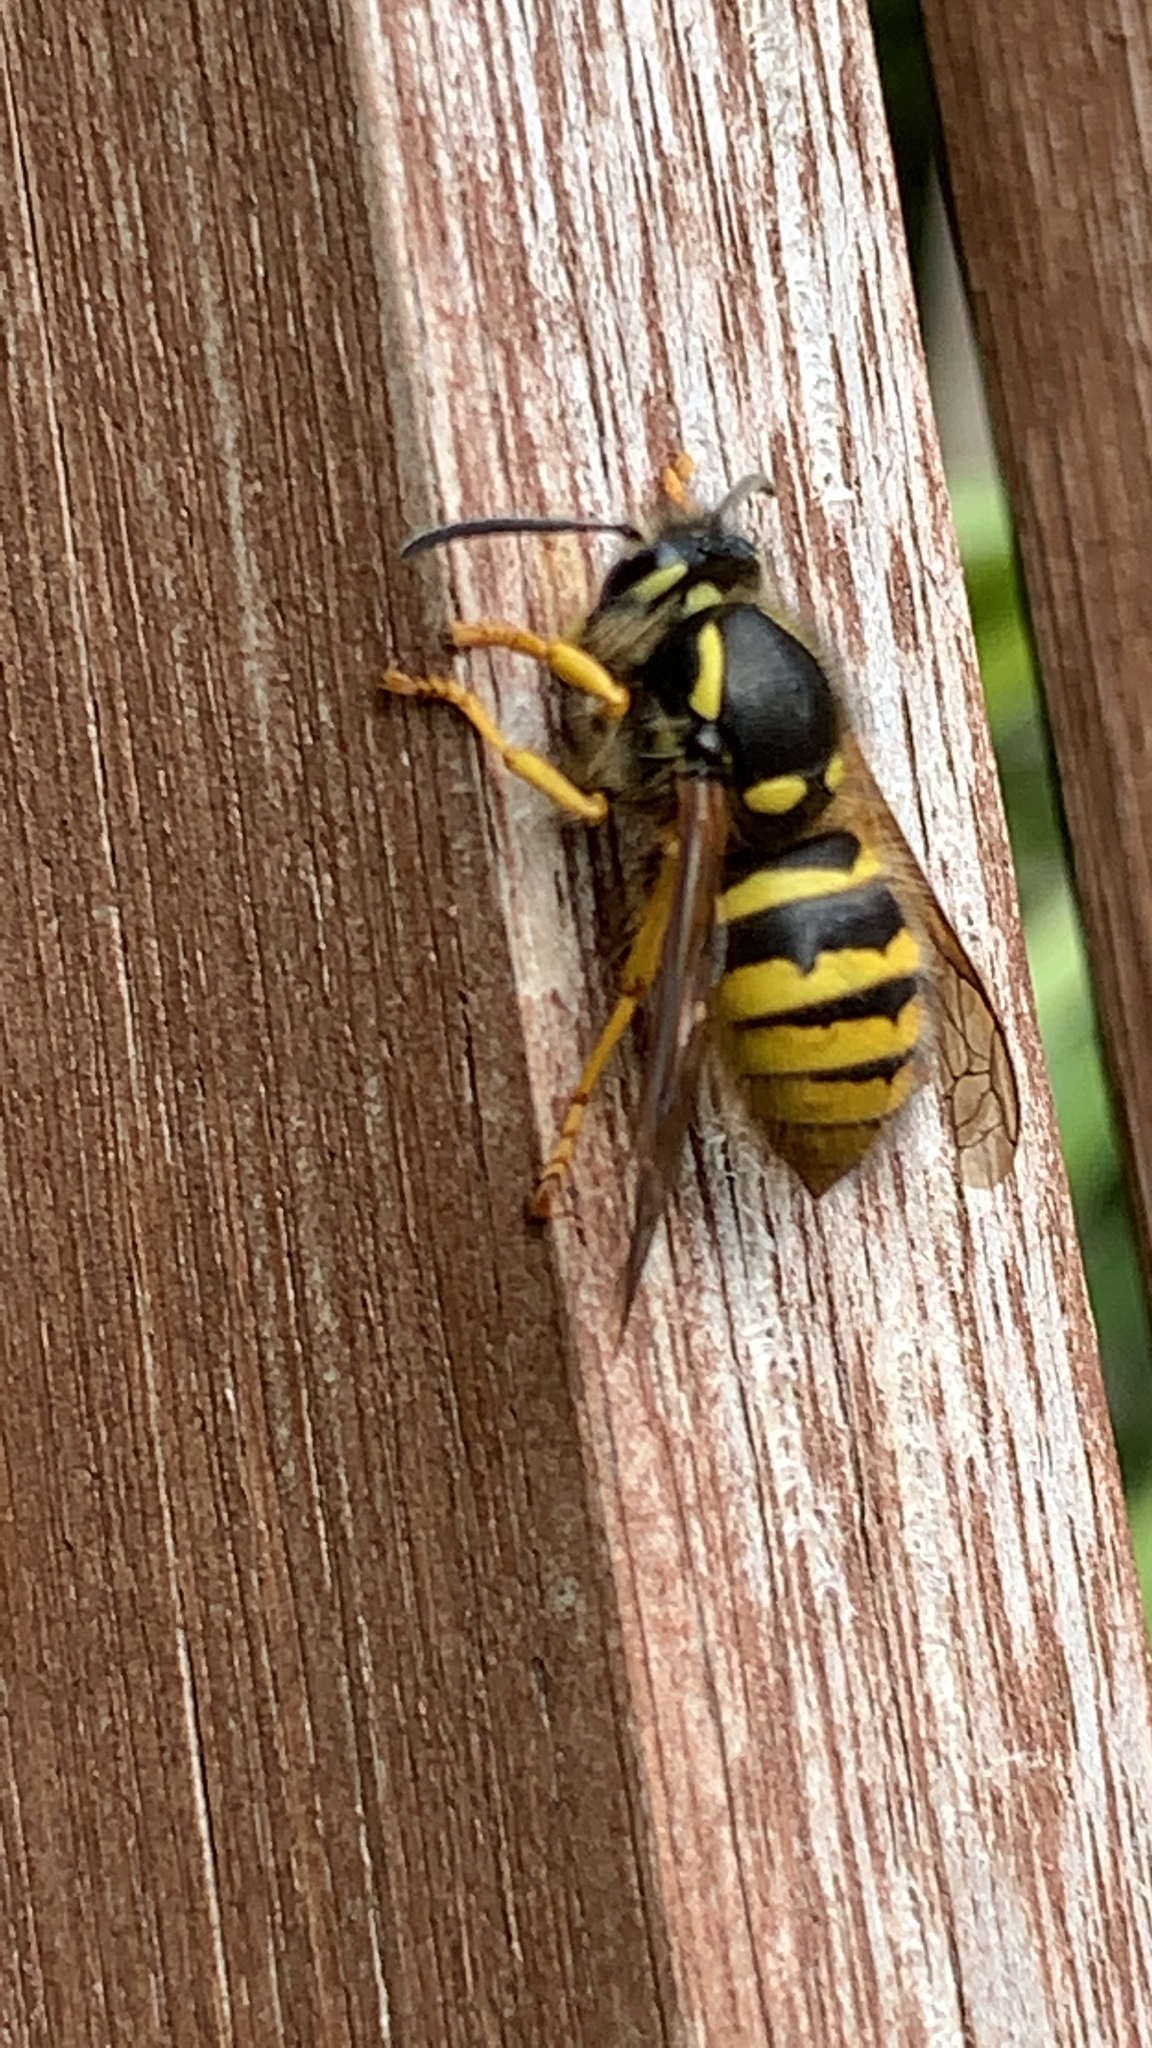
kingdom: Animalia
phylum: Arthropoda
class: Insecta
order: Hymenoptera
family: Vespidae
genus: Dolichovespula
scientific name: Dolichovespula sylvestris
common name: Tree wasp
